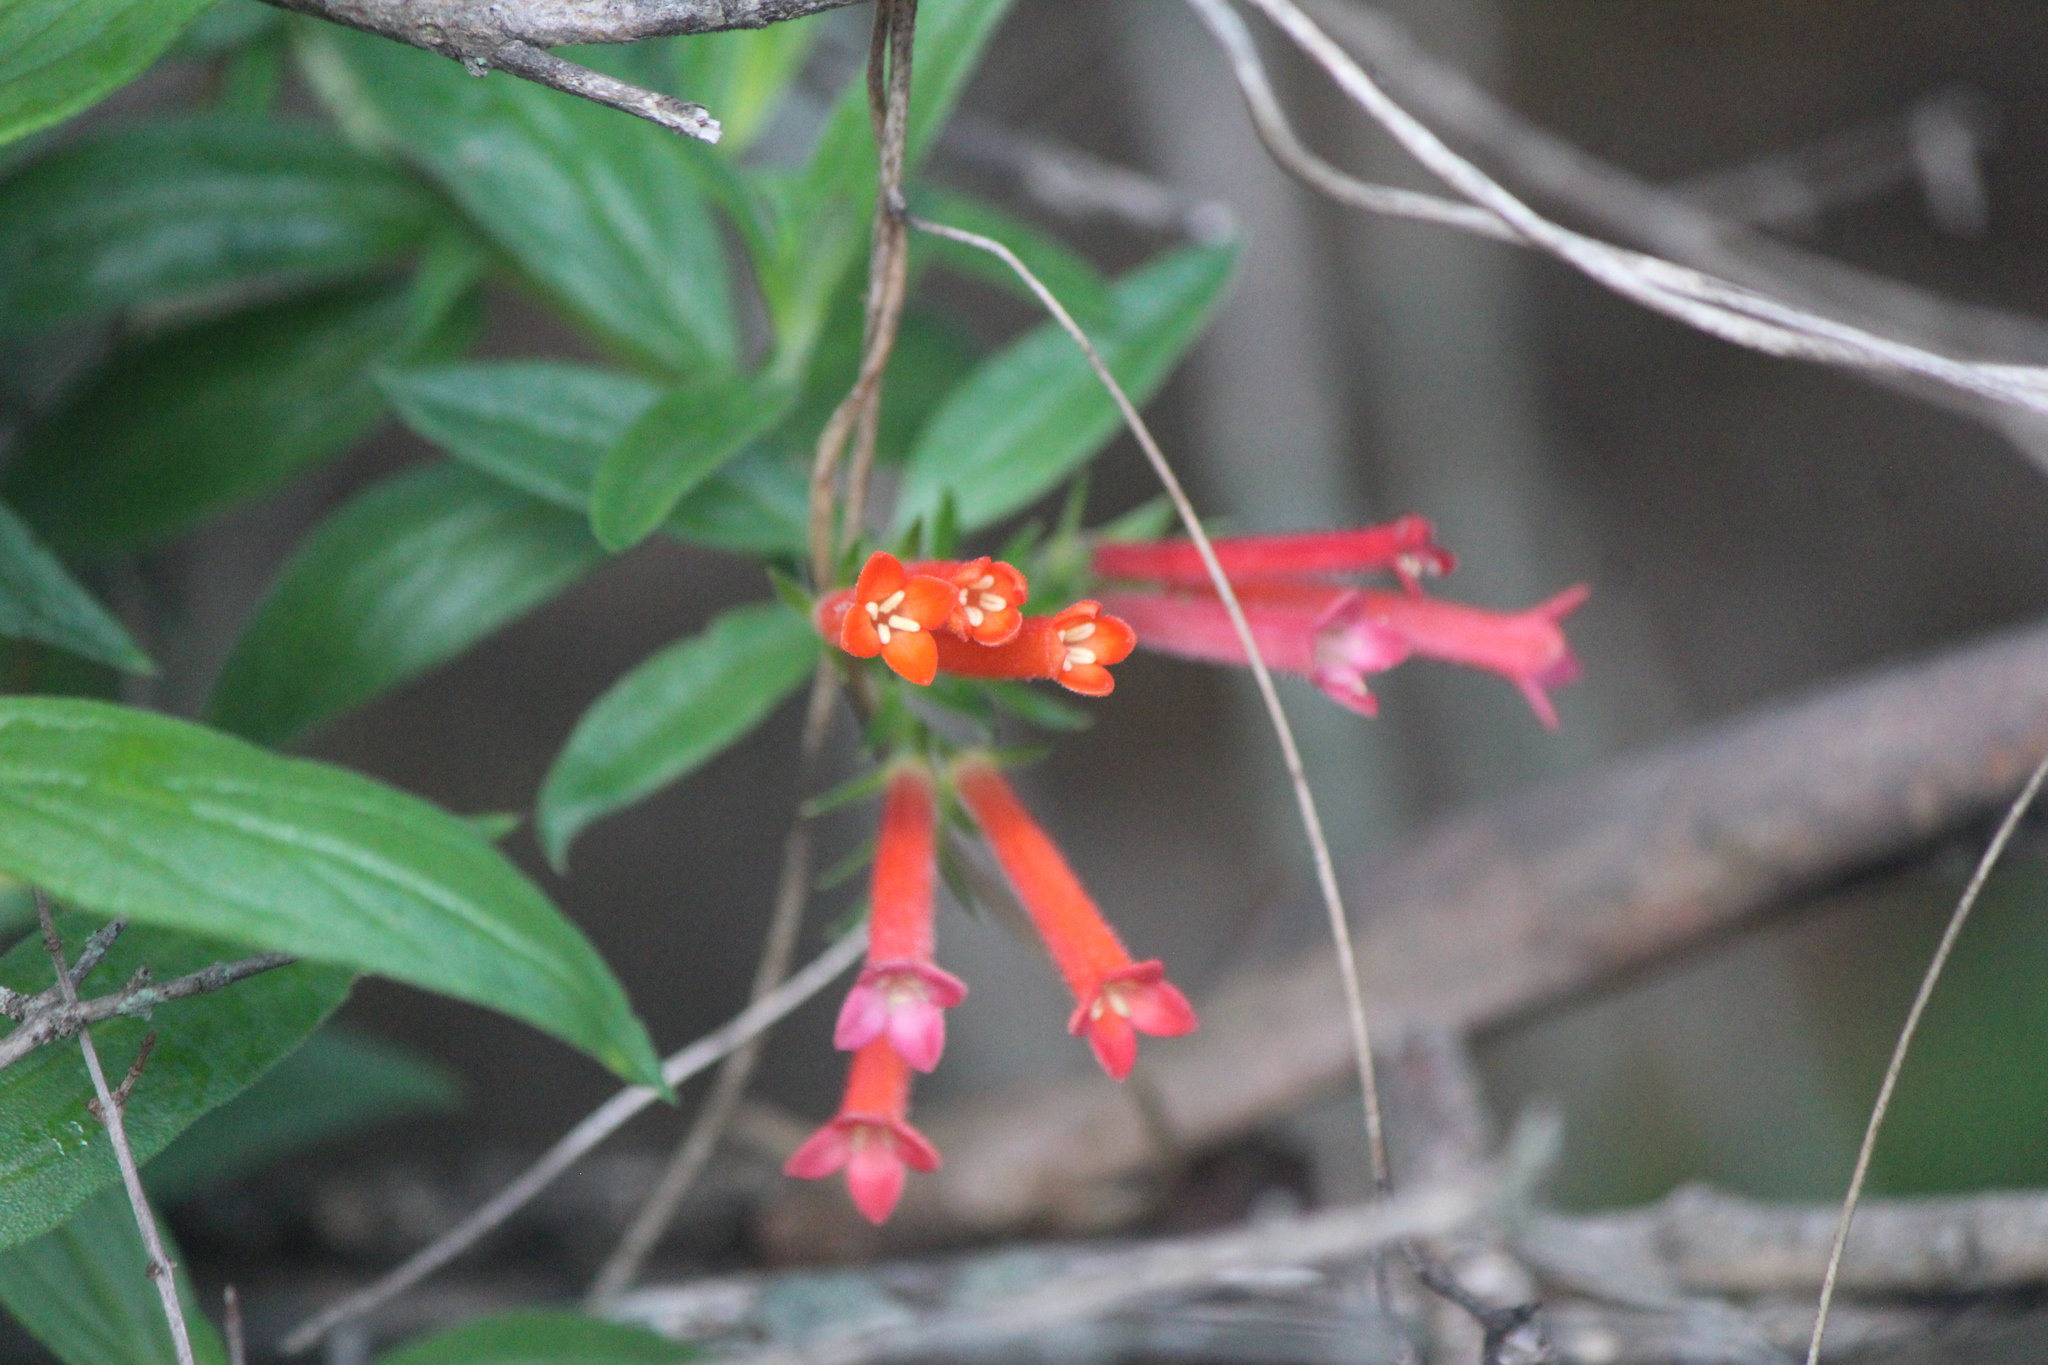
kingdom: Plantae
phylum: Tracheophyta
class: Magnoliopsida
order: Gentianales
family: Rubiaceae
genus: Bouvardia
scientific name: Bouvardia ternifolia
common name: Scarlet bouvardia
